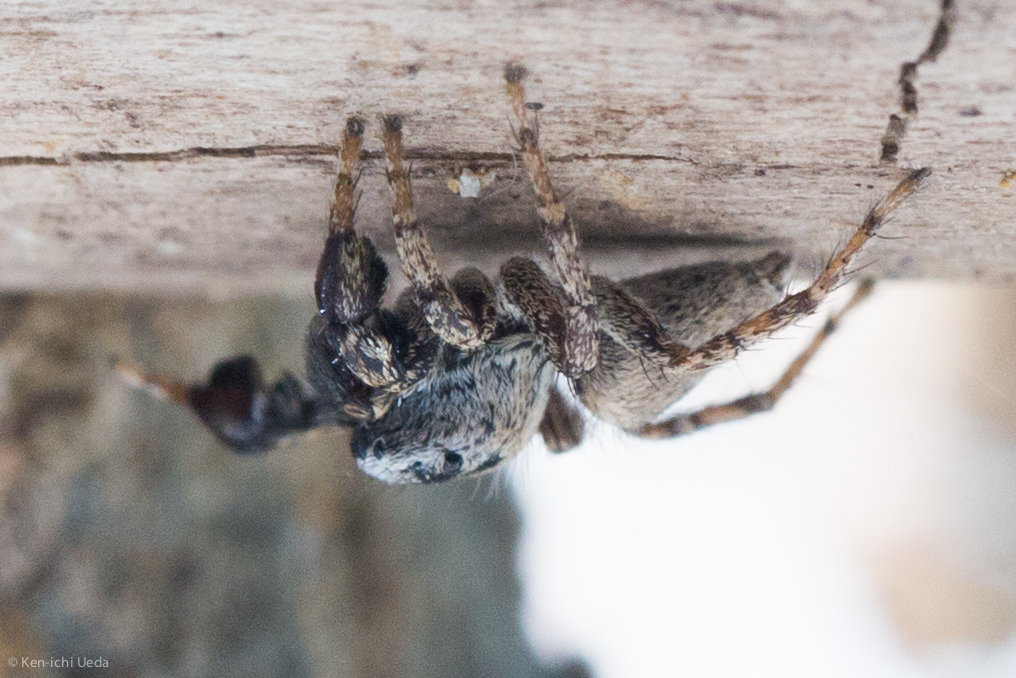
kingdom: Animalia
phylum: Arthropoda
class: Arachnida
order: Araneae
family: Salticidae
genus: Habronattus
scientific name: Habronattus oregonensis
